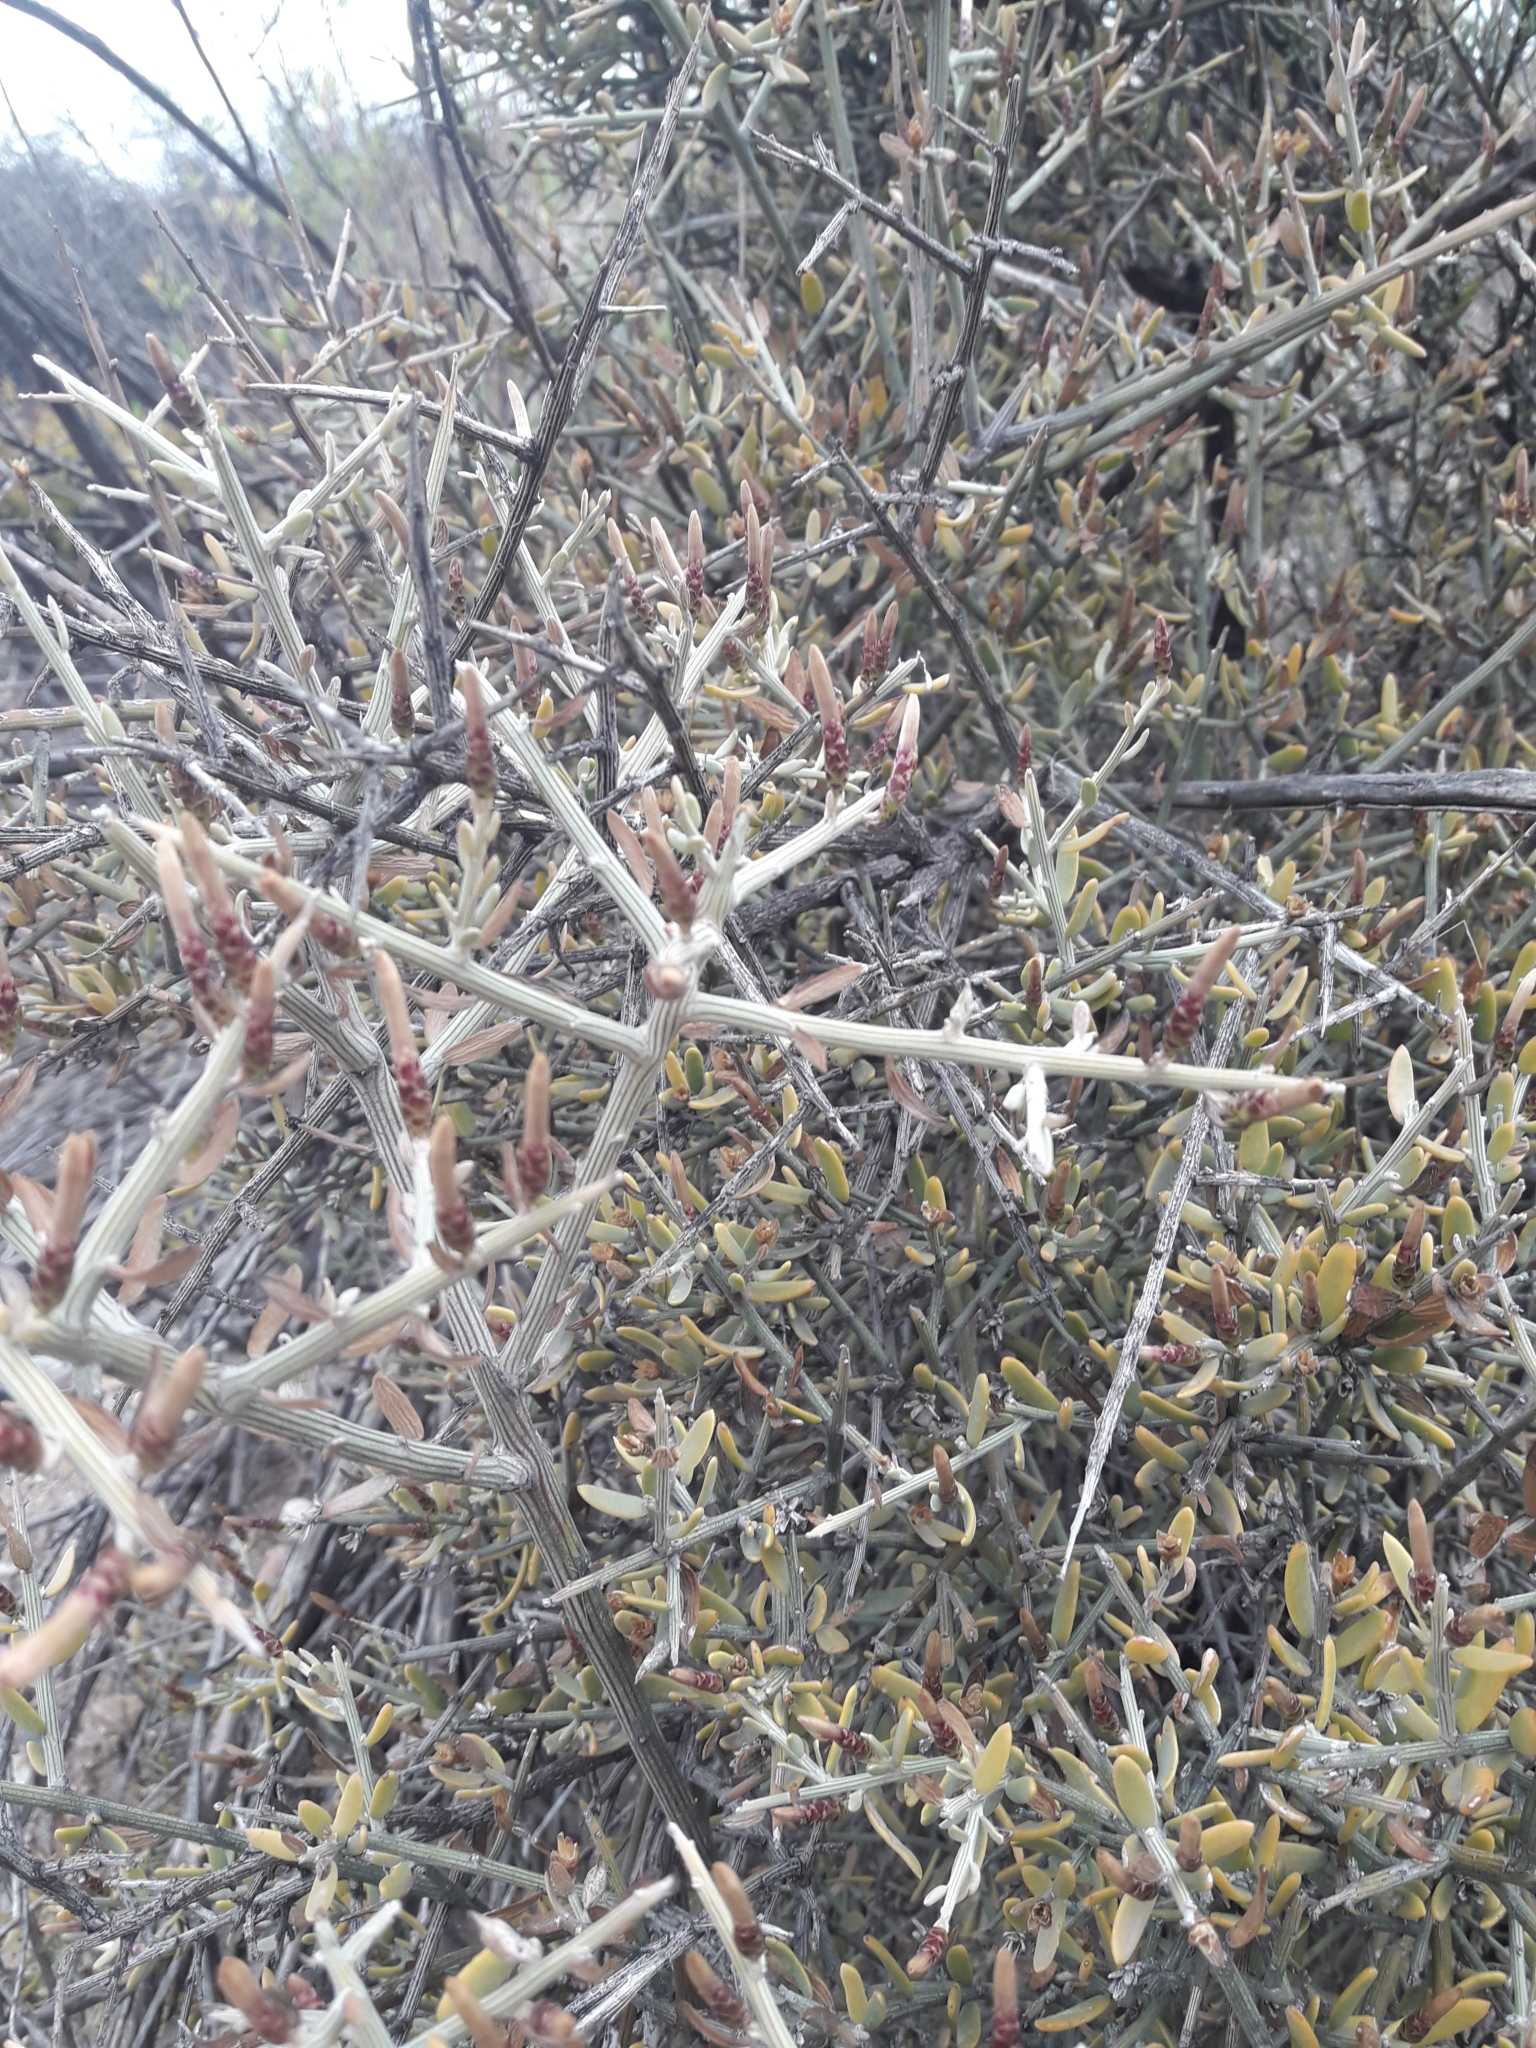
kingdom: Plantae
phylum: Tracheophyta
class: Magnoliopsida
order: Asterales
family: Asteraceae
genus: Cyclolepis
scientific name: Cyclolepis genistoides
